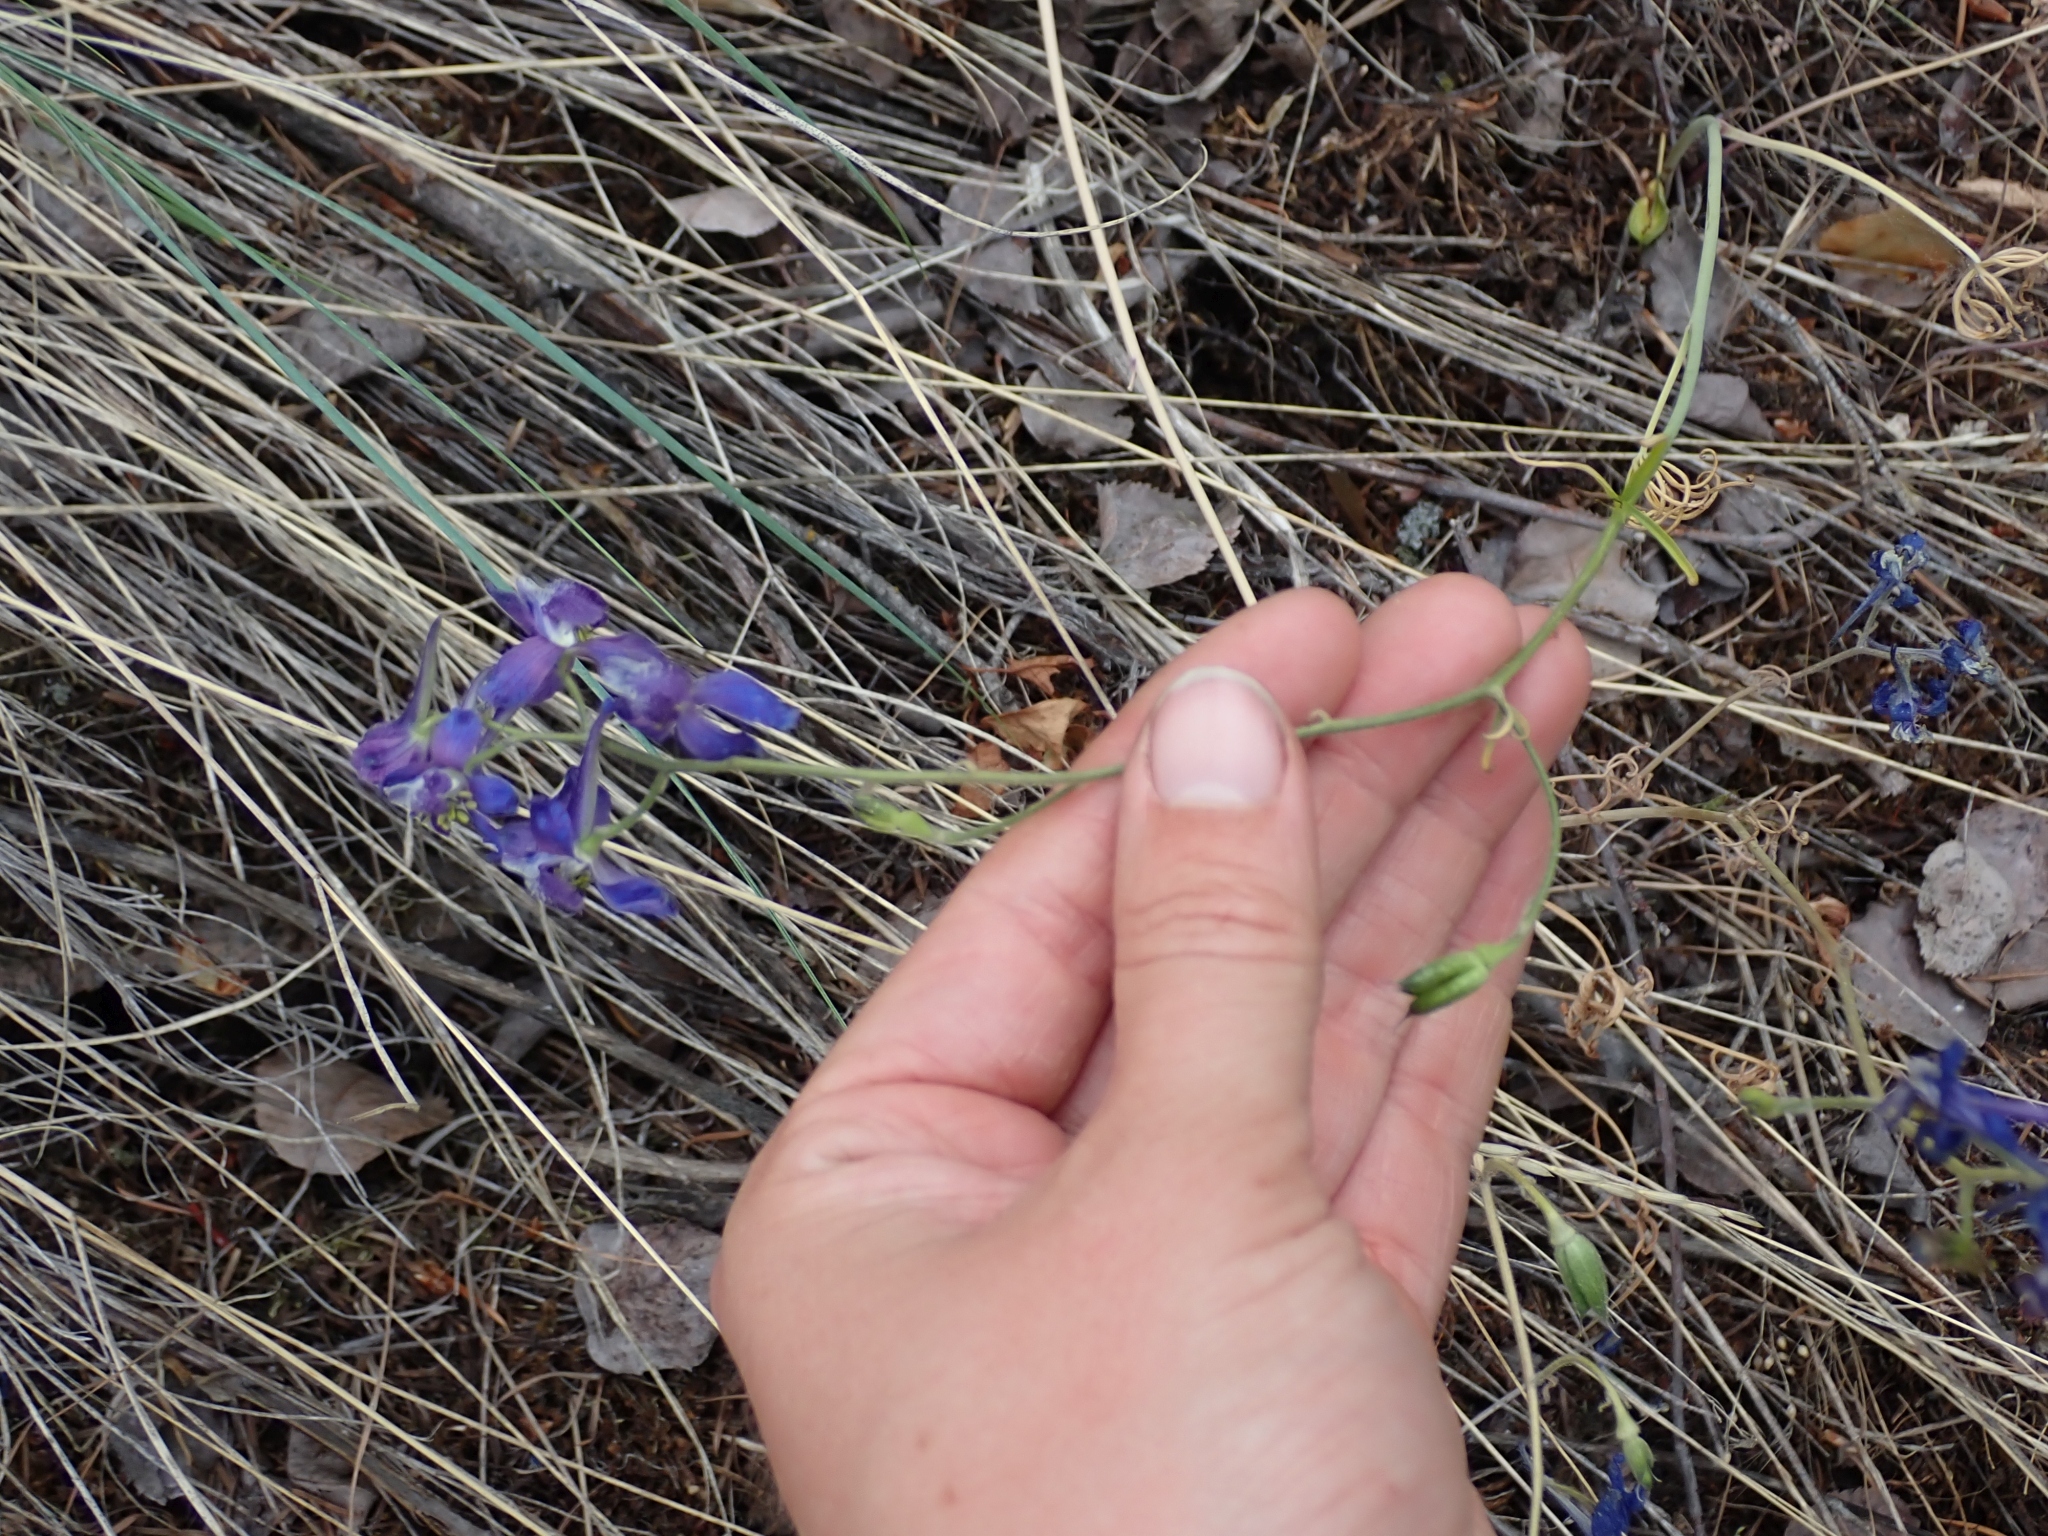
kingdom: Plantae
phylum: Tracheophyta
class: Magnoliopsida
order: Ranunculales
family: Ranunculaceae
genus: Delphinium
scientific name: Delphinium nuttallianum
